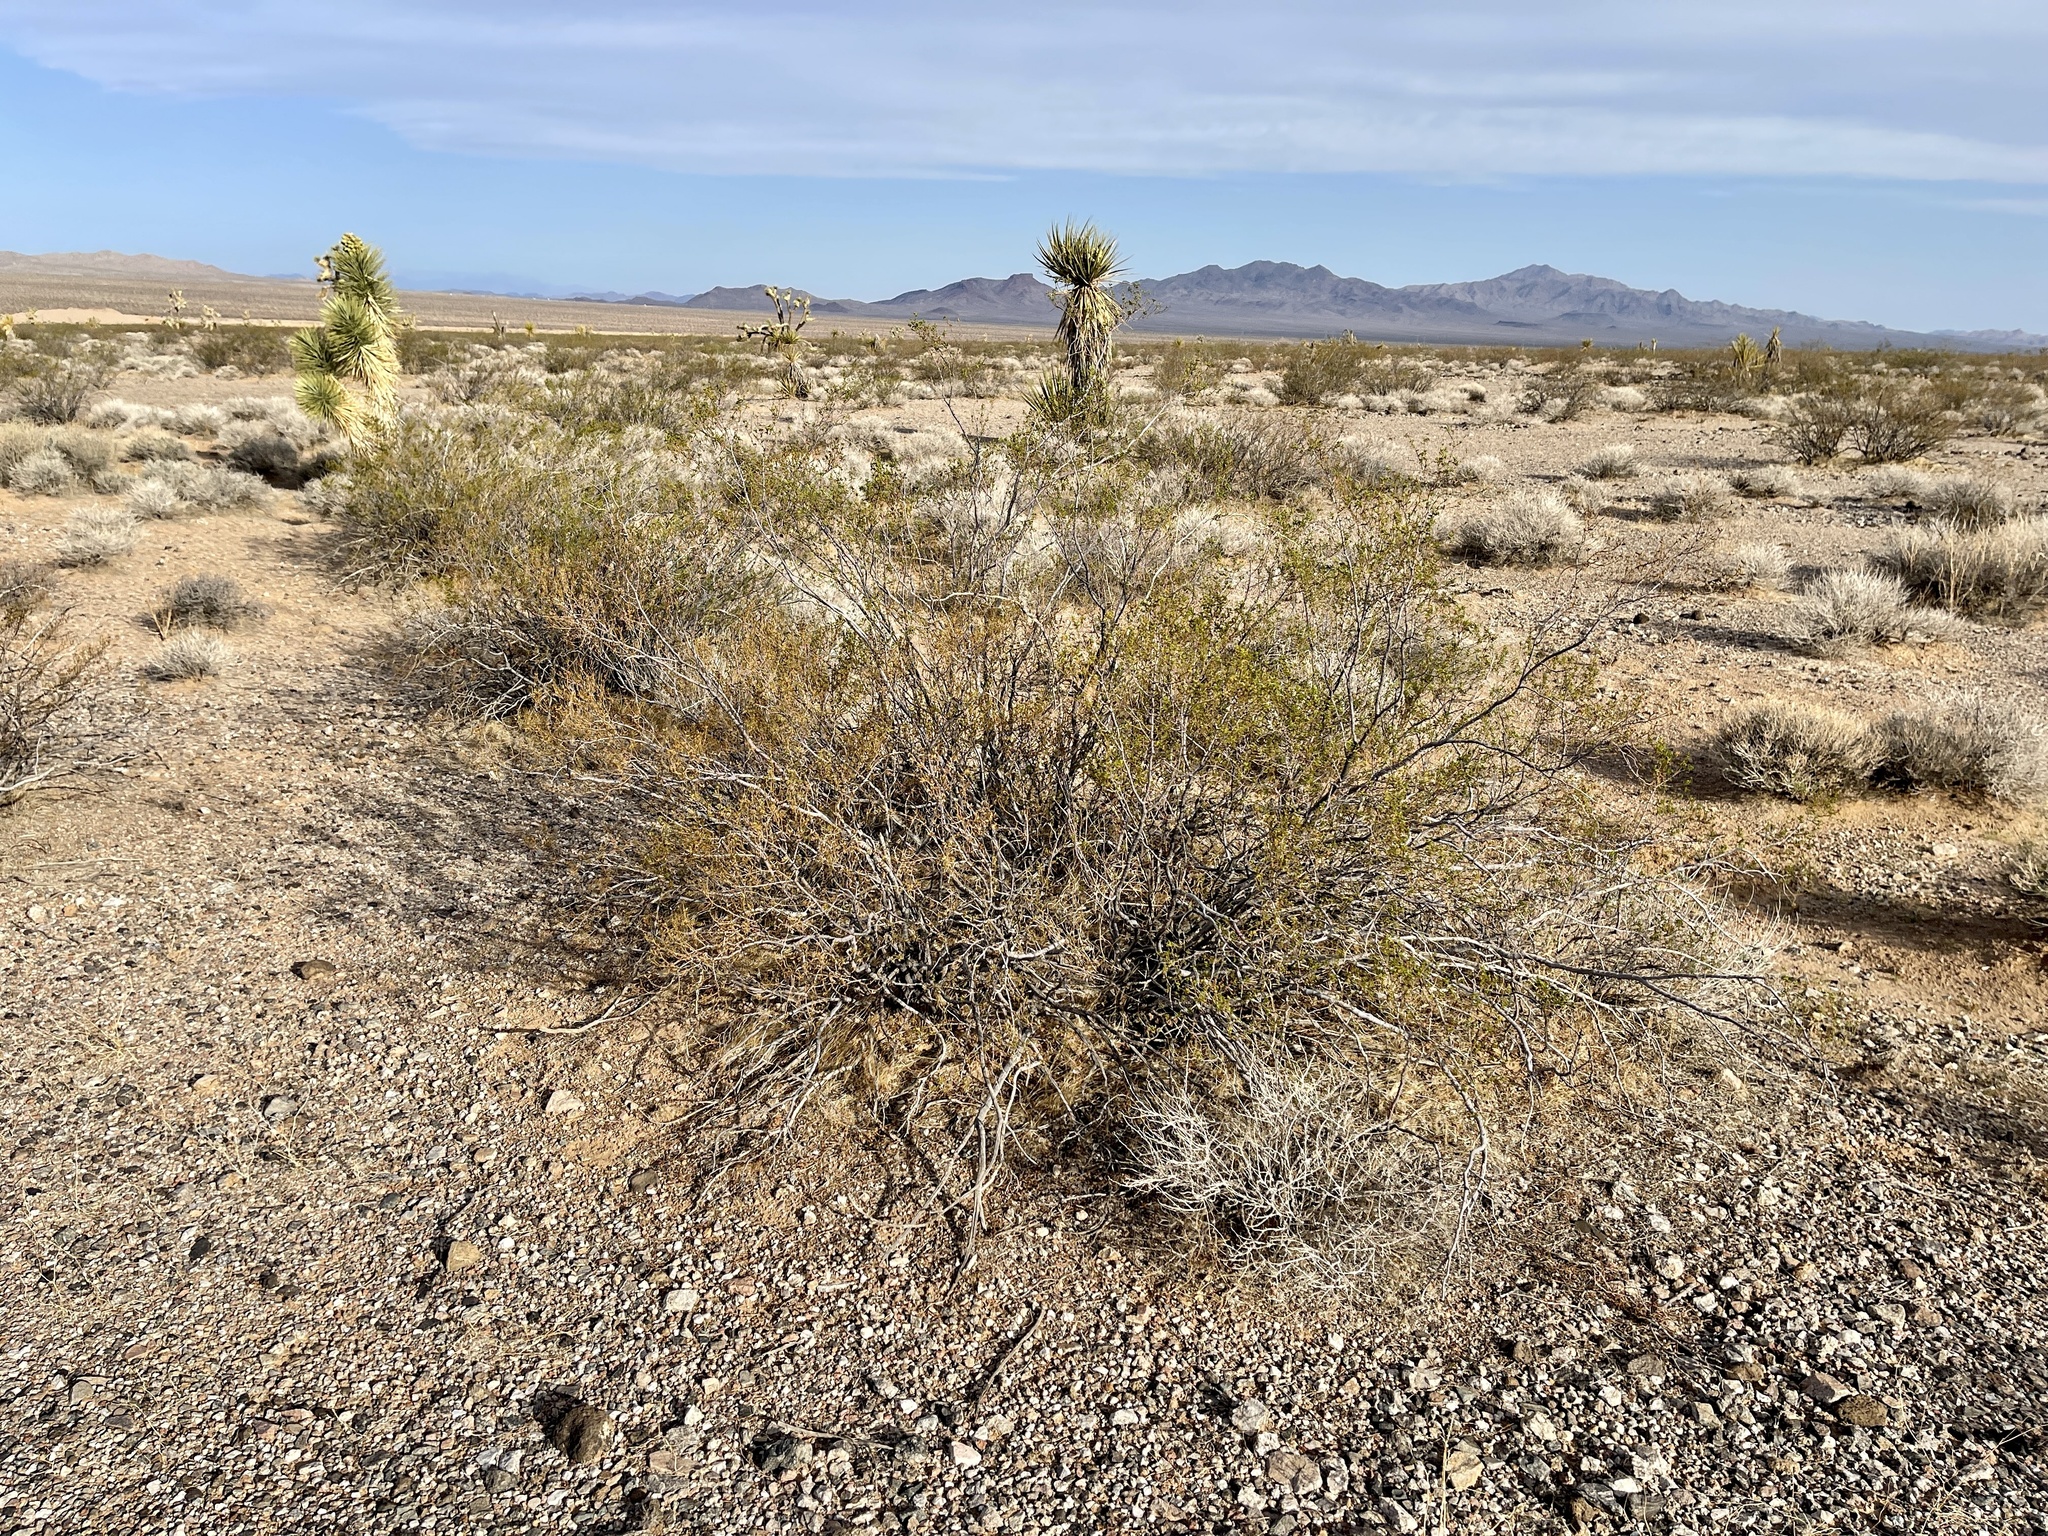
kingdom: Plantae
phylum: Tracheophyta
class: Magnoliopsida
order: Zygophyllales
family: Zygophyllaceae
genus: Larrea
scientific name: Larrea tridentata
